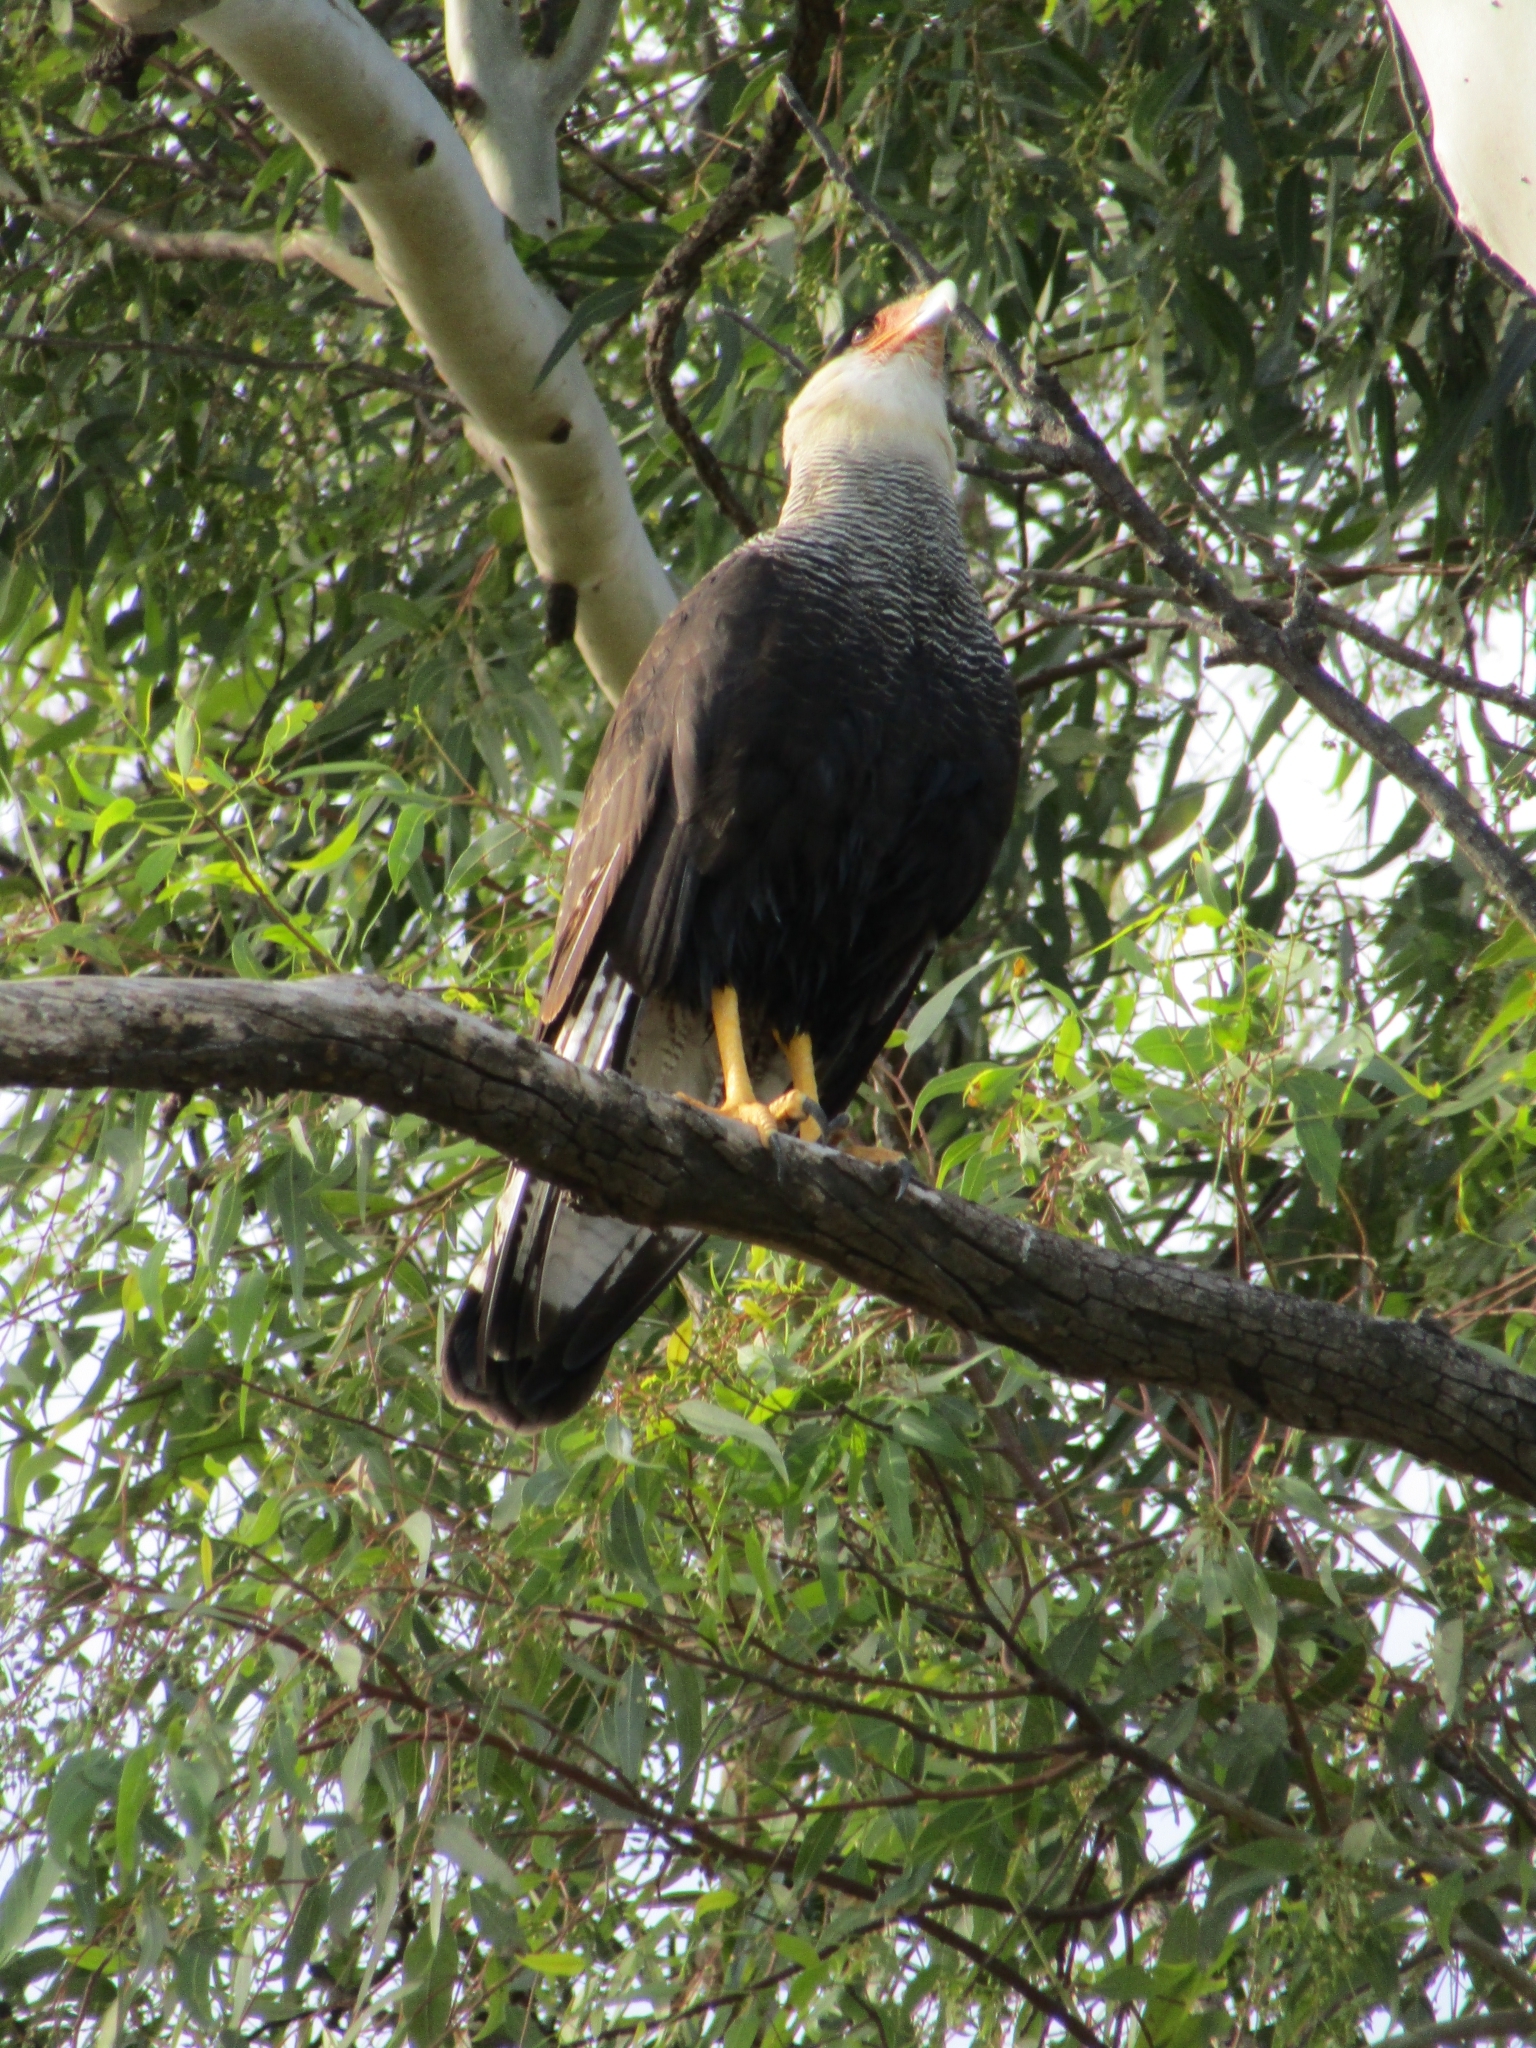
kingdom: Animalia
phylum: Chordata
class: Aves
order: Falconiformes
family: Falconidae
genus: Caracara
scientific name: Caracara plancus
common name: Southern caracara
